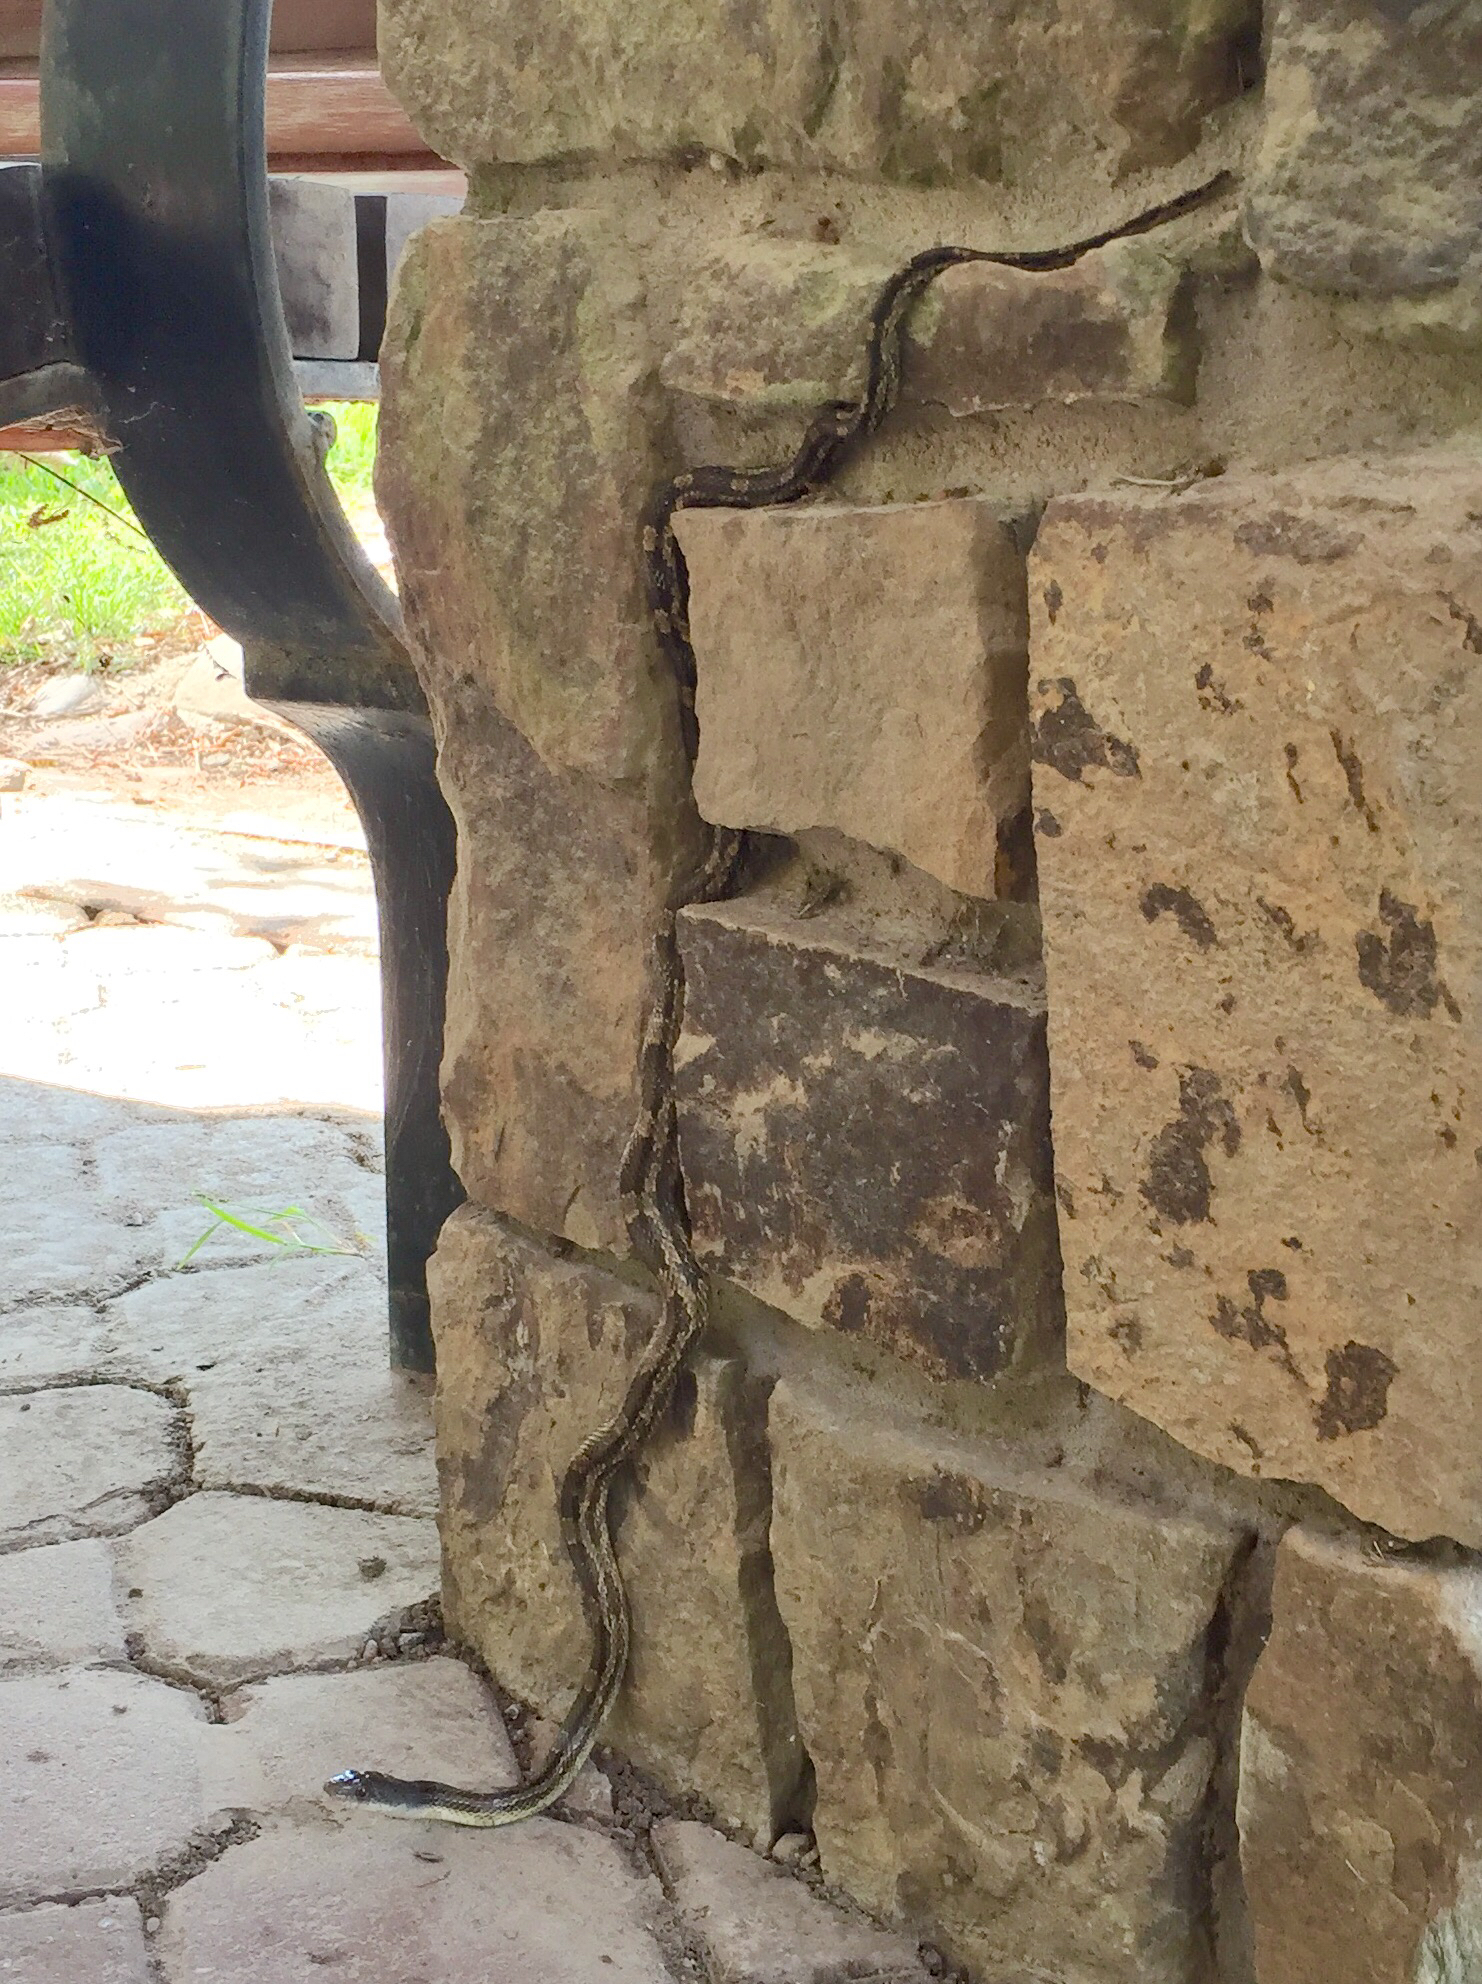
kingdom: Animalia
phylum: Chordata
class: Squamata
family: Colubridae
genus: Pantherophis
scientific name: Pantherophis obsoletus
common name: Black rat snake
